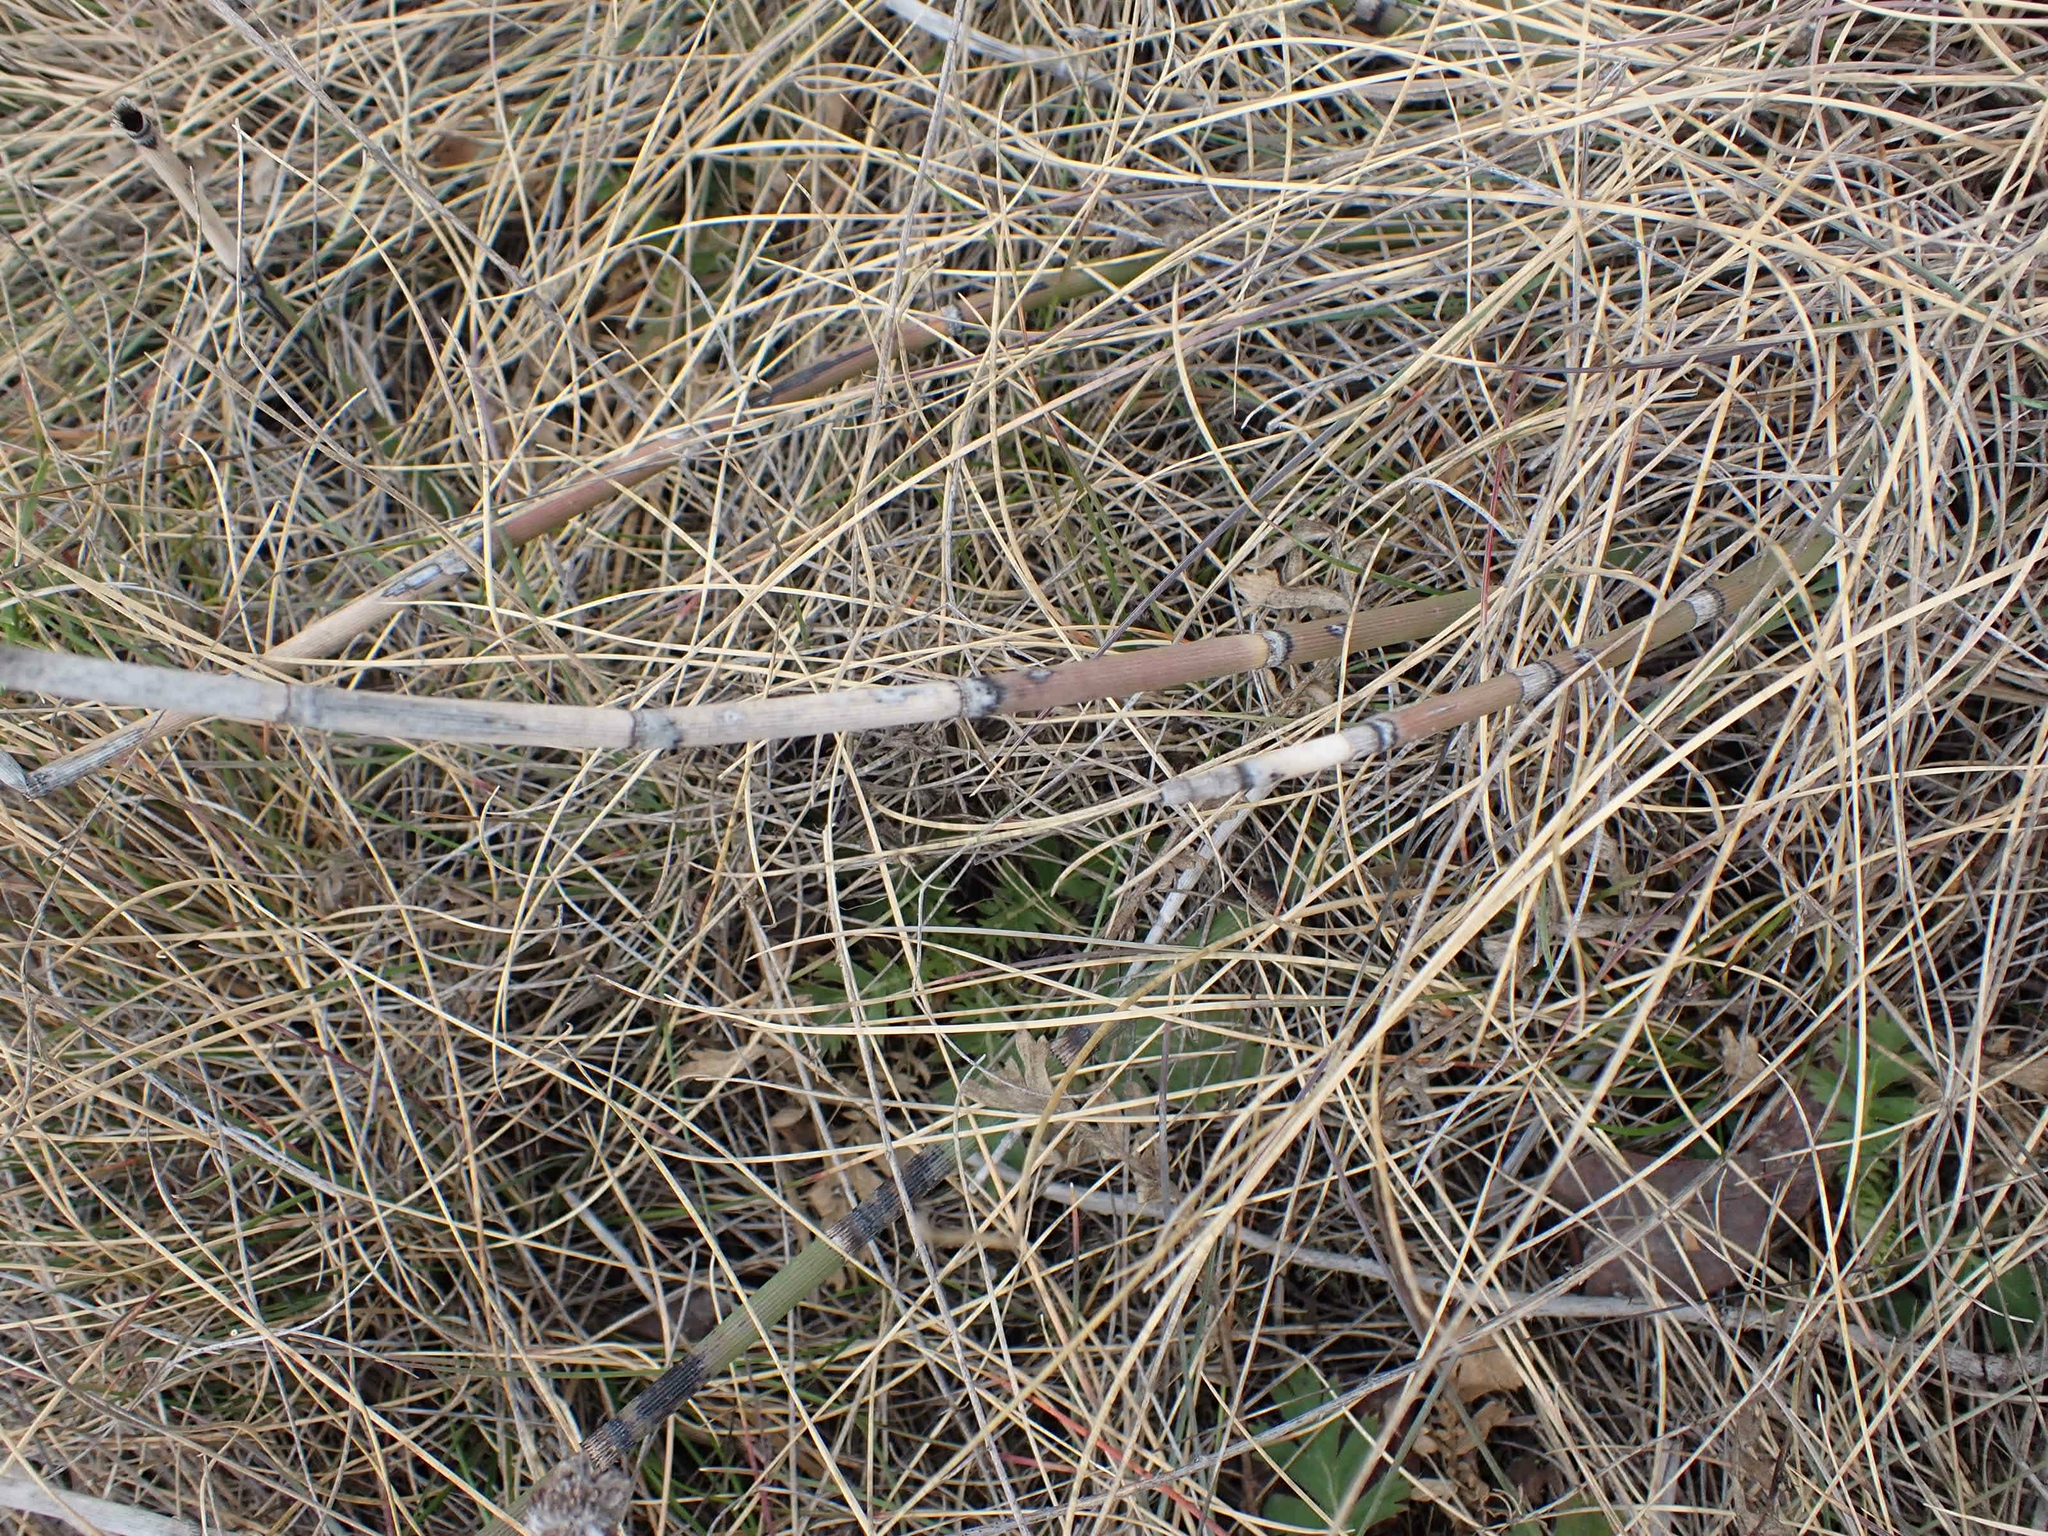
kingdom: Plantae
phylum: Tracheophyta
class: Polypodiopsida
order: Equisetales
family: Equisetaceae
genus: Equisetum
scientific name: Equisetum praealtum
